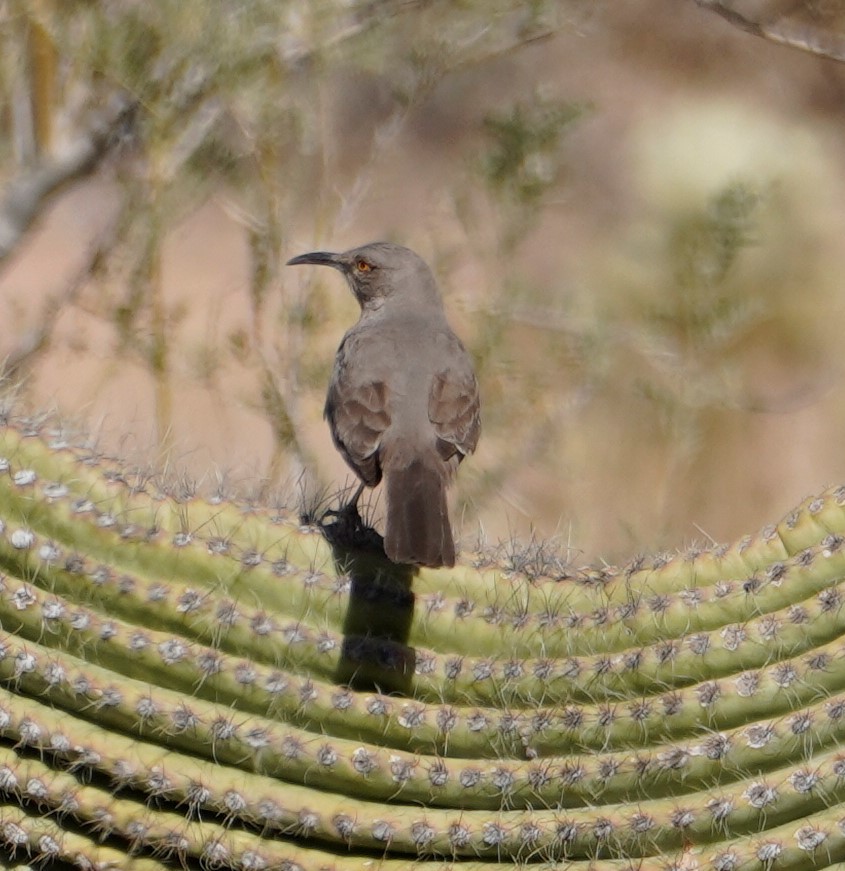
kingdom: Animalia
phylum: Chordata
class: Aves
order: Passeriformes
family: Mimidae
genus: Toxostoma
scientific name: Toxostoma curvirostre
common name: Curve-billed thrasher
